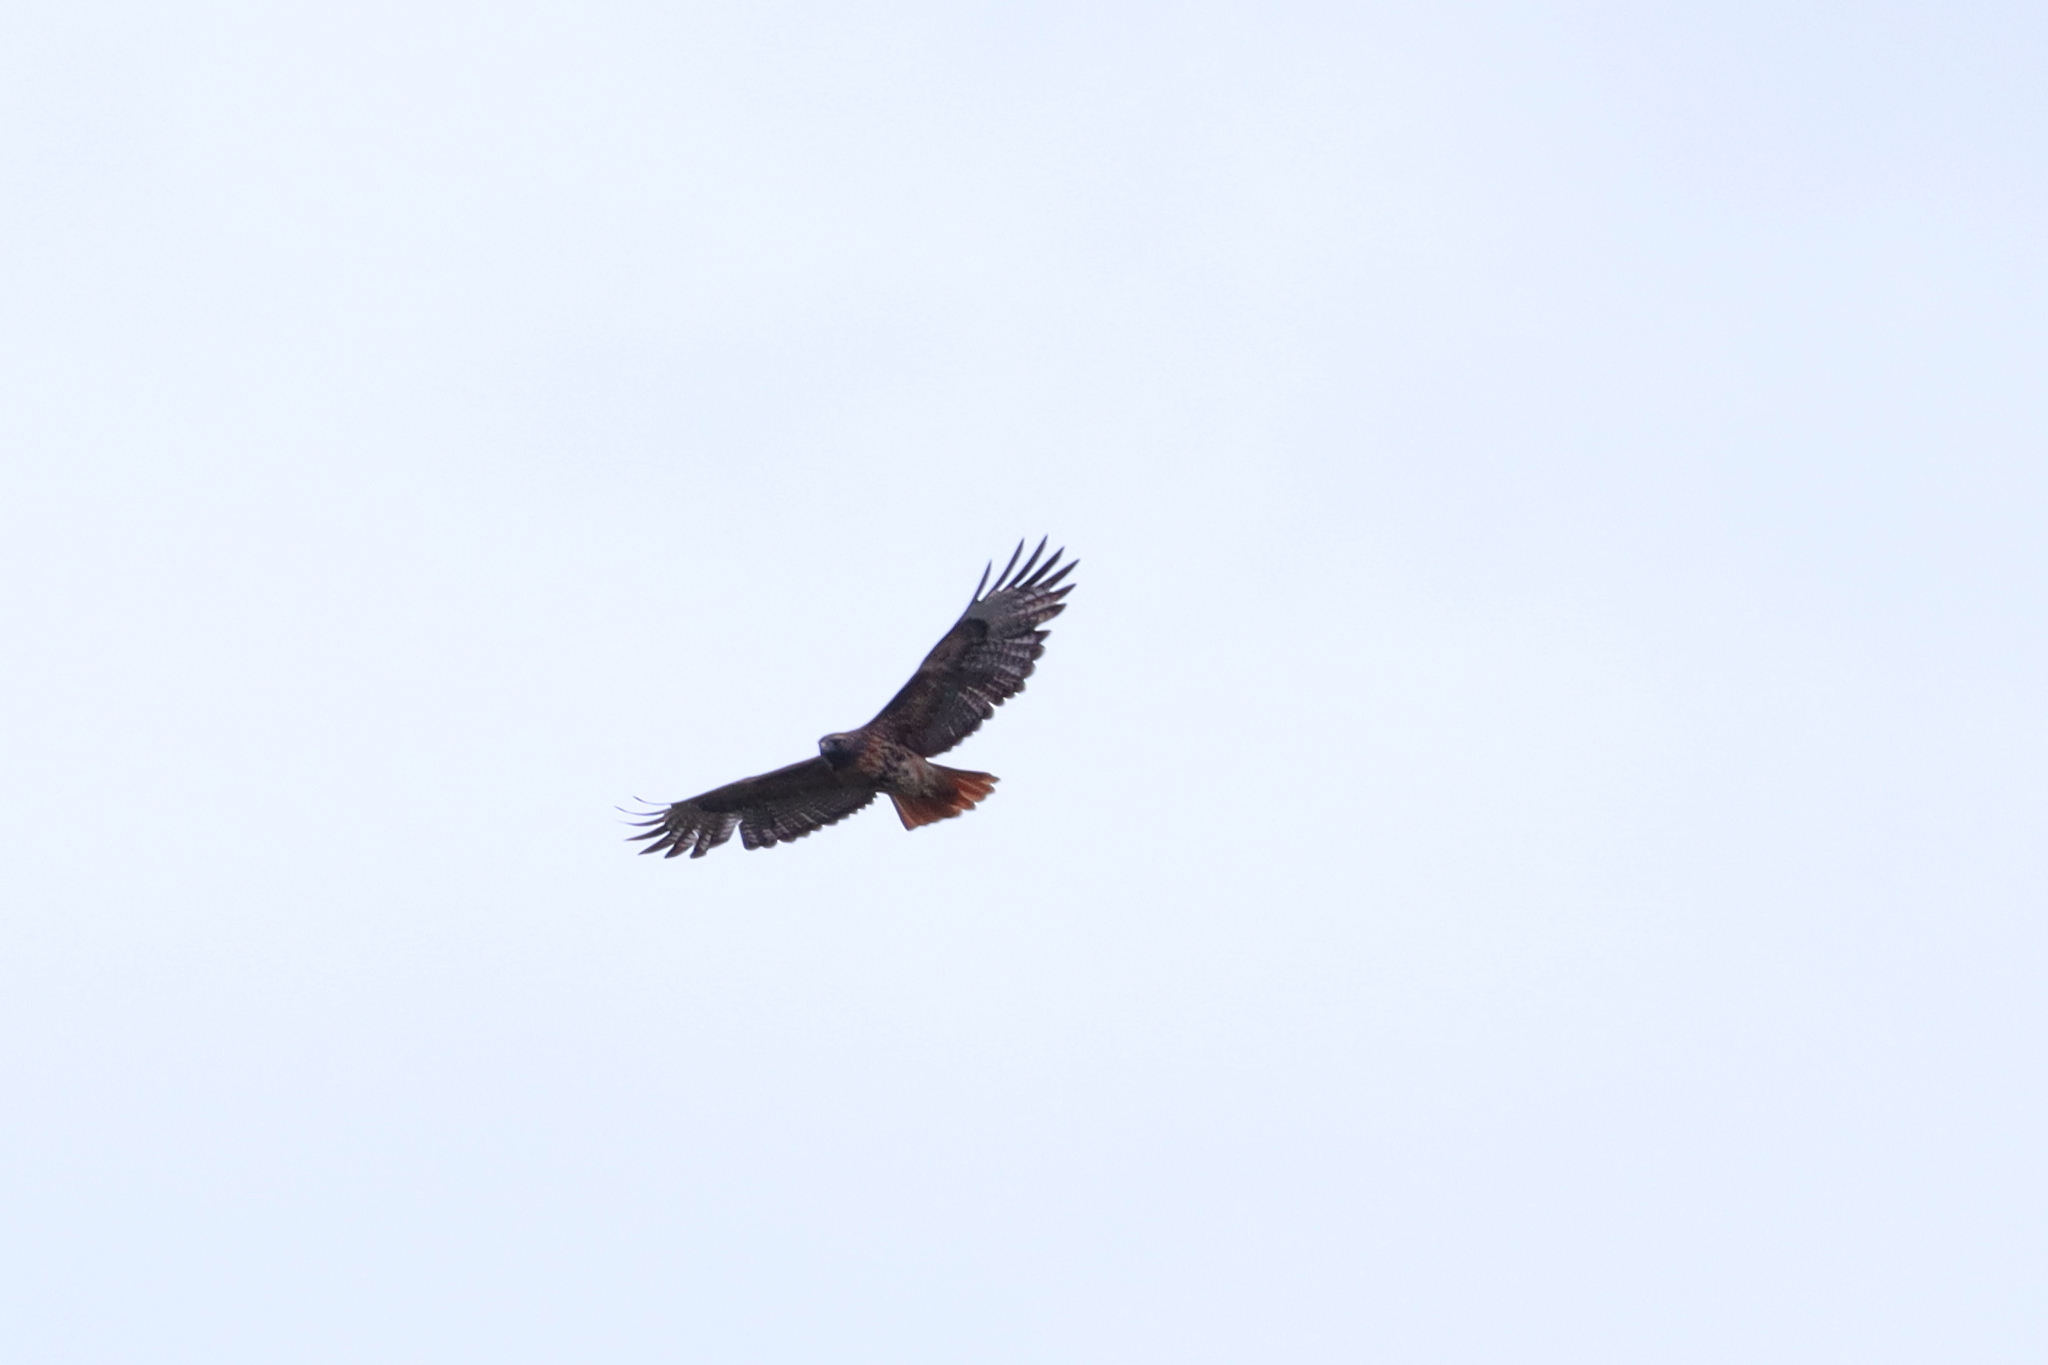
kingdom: Animalia
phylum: Chordata
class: Aves
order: Accipitriformes
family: Accipitridae
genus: Buteo
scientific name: Buteo jamaicensis
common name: Red-tailed hawk
